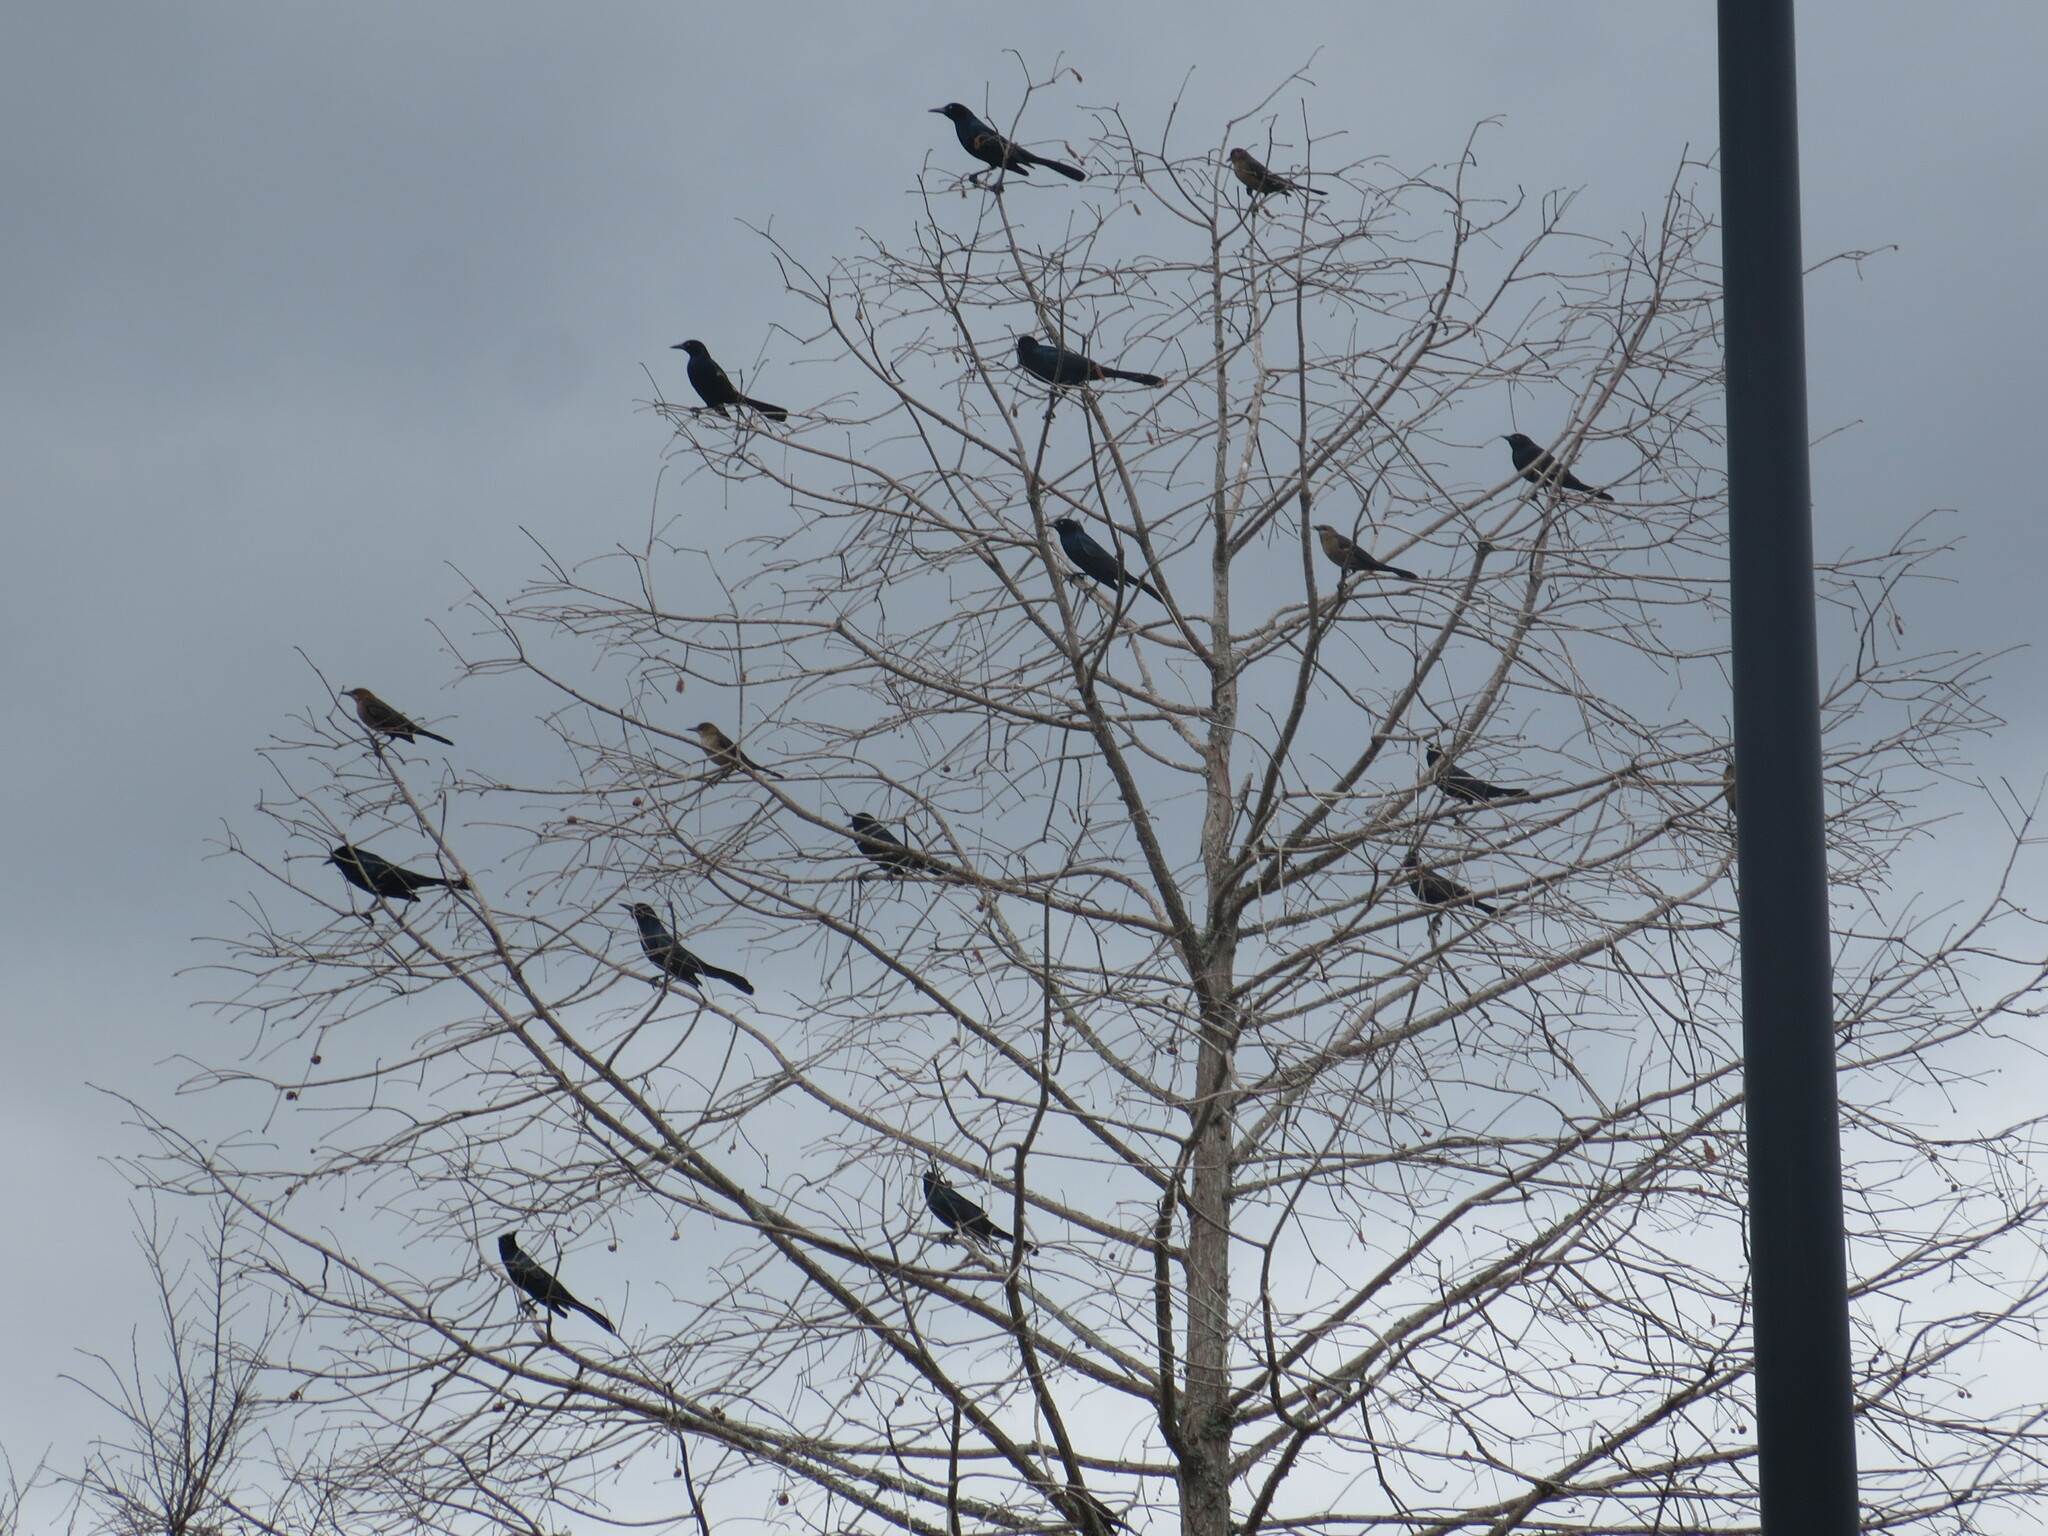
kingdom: Animalia
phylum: Chordata
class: Aves
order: Passeriformes
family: Icteridae
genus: Quiscalus
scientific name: Quiscalus major
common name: Boat-tailed grackle
